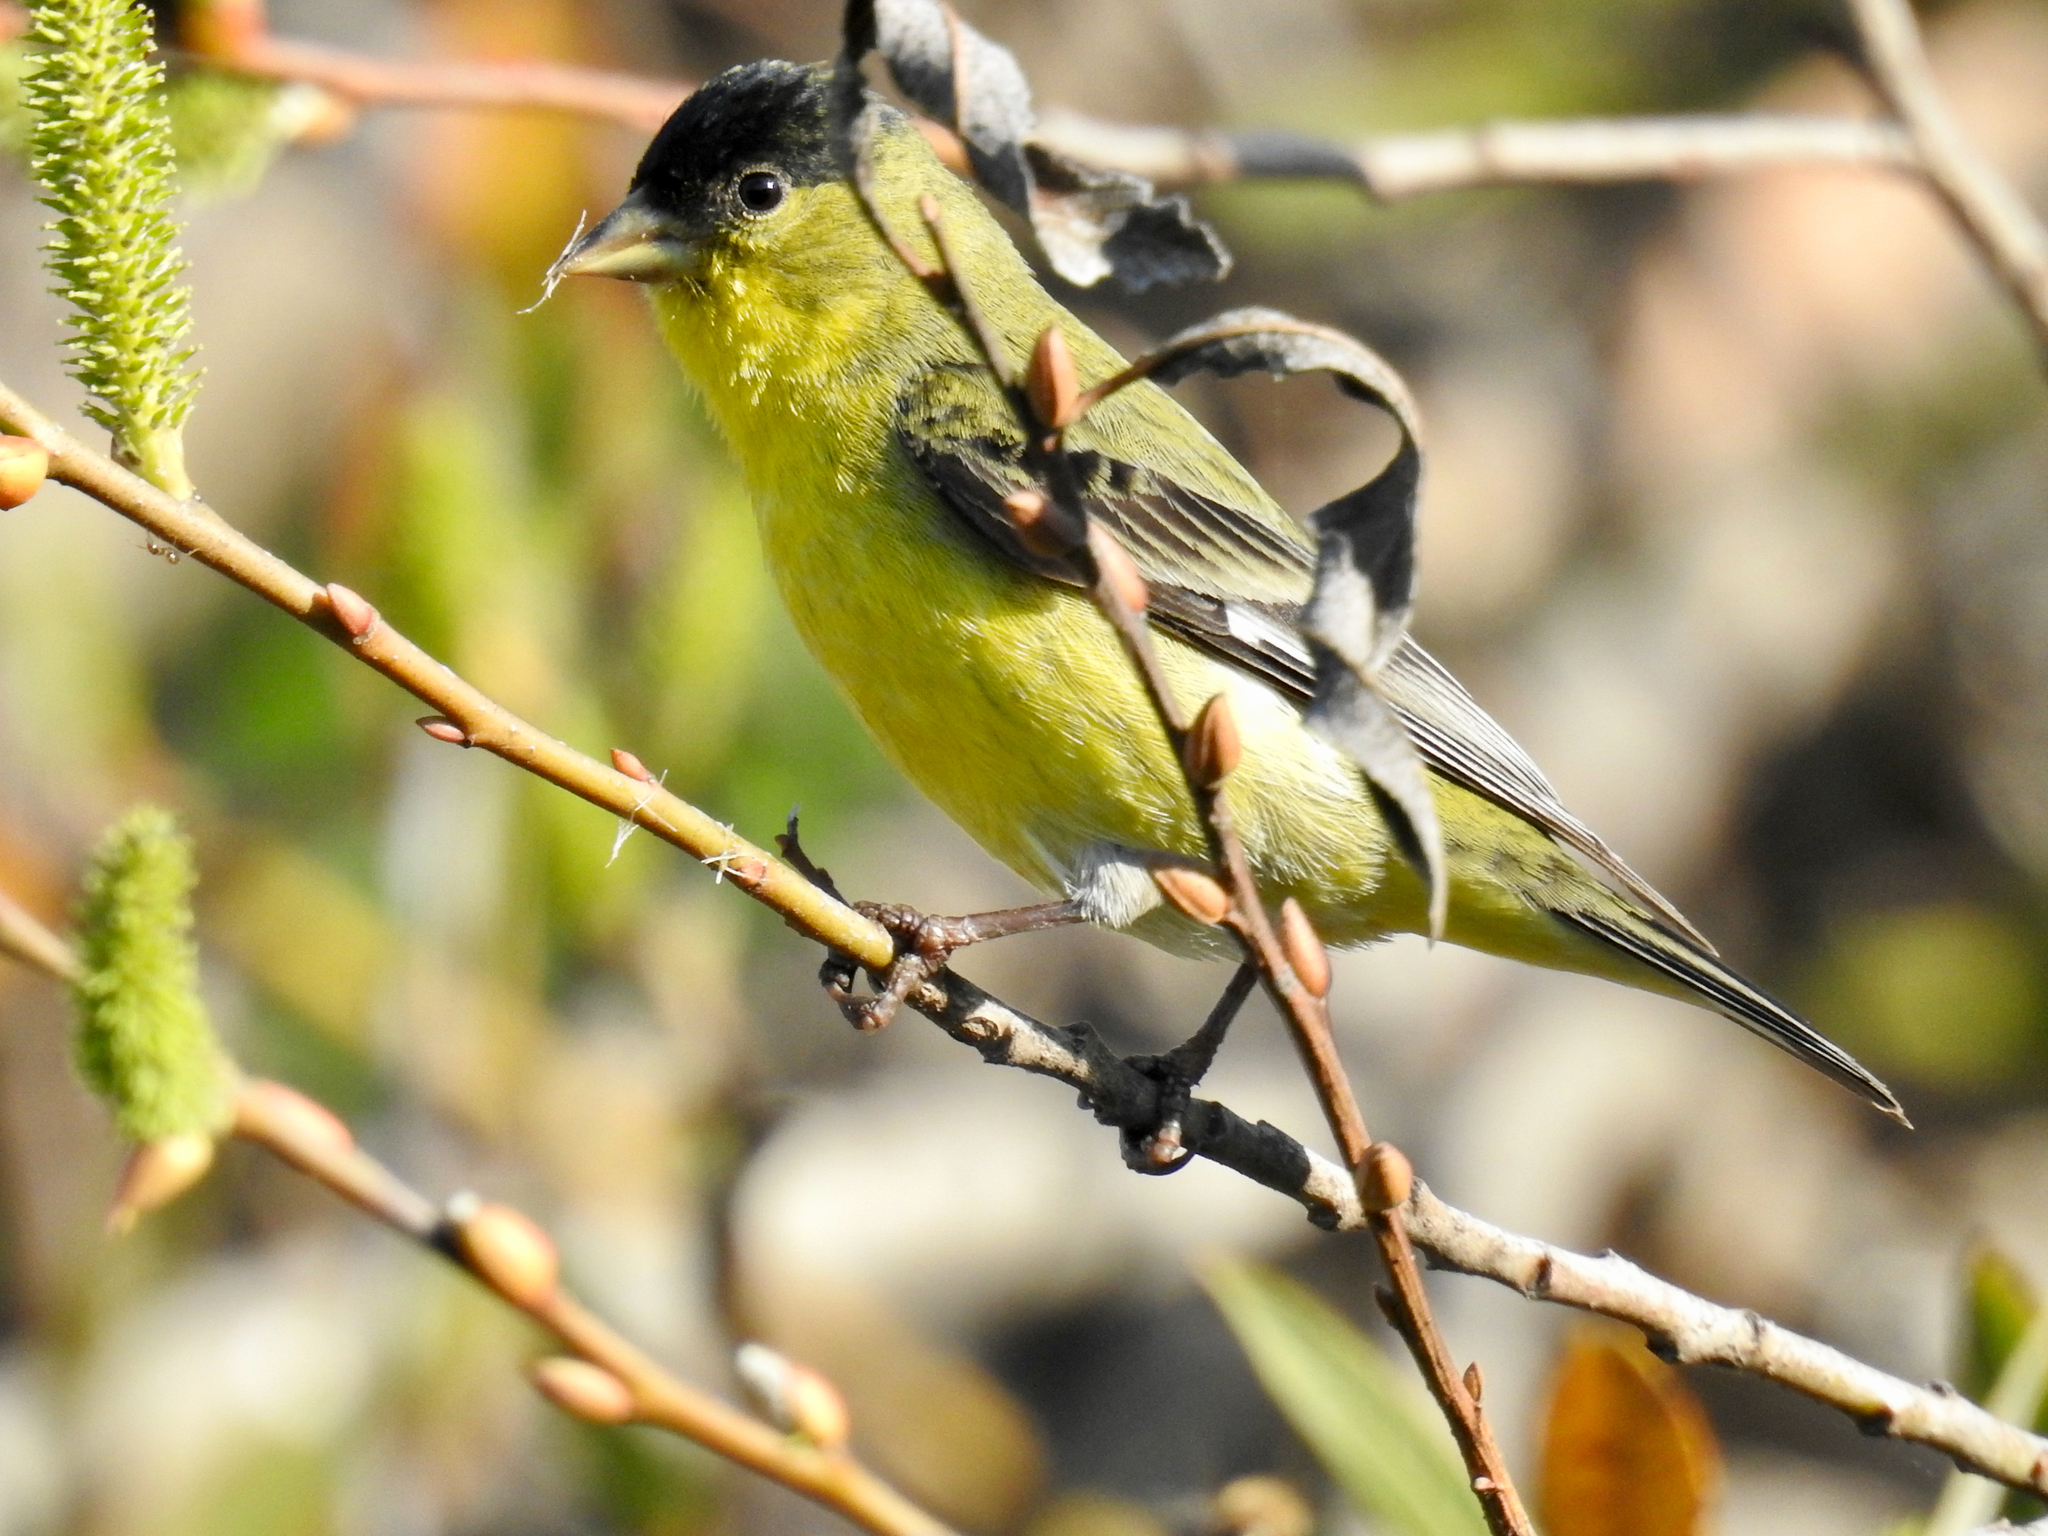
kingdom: Animalia
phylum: Chordata
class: Aves
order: Passeriformes
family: Fringillidae
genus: Spinus
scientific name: Spinus psaltria
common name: Lesser goldfinch
